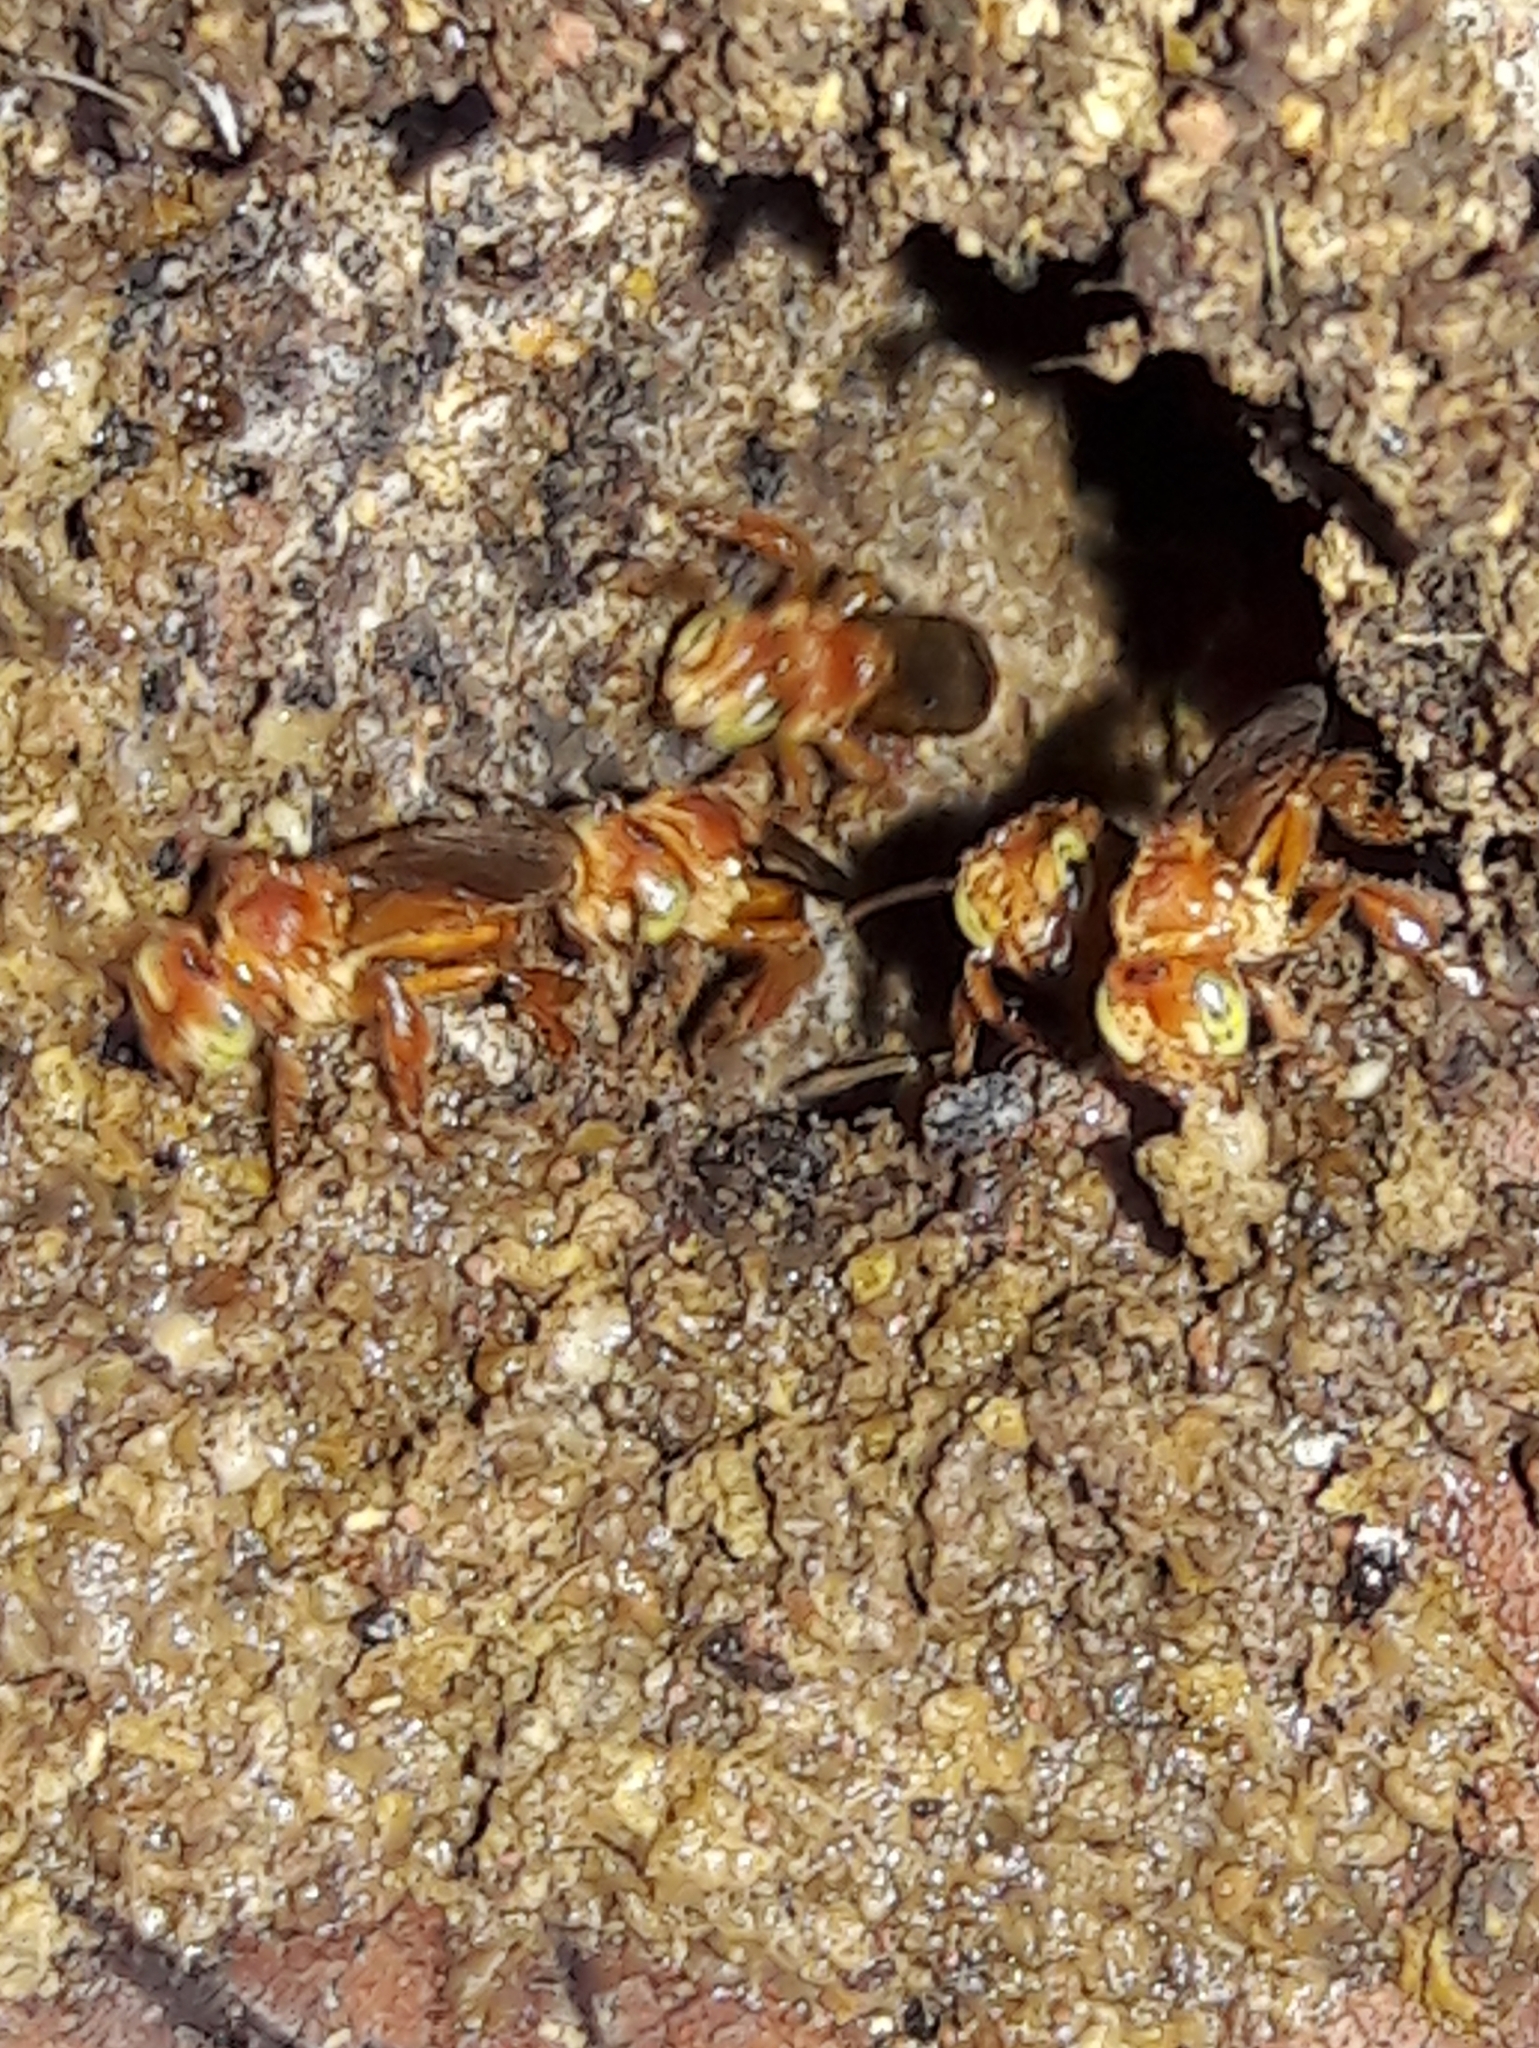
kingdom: Animalia
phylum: Arthropoda
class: Insecta
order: Hymenoptera
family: Apidae
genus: Trigona
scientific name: Trigona pallens
